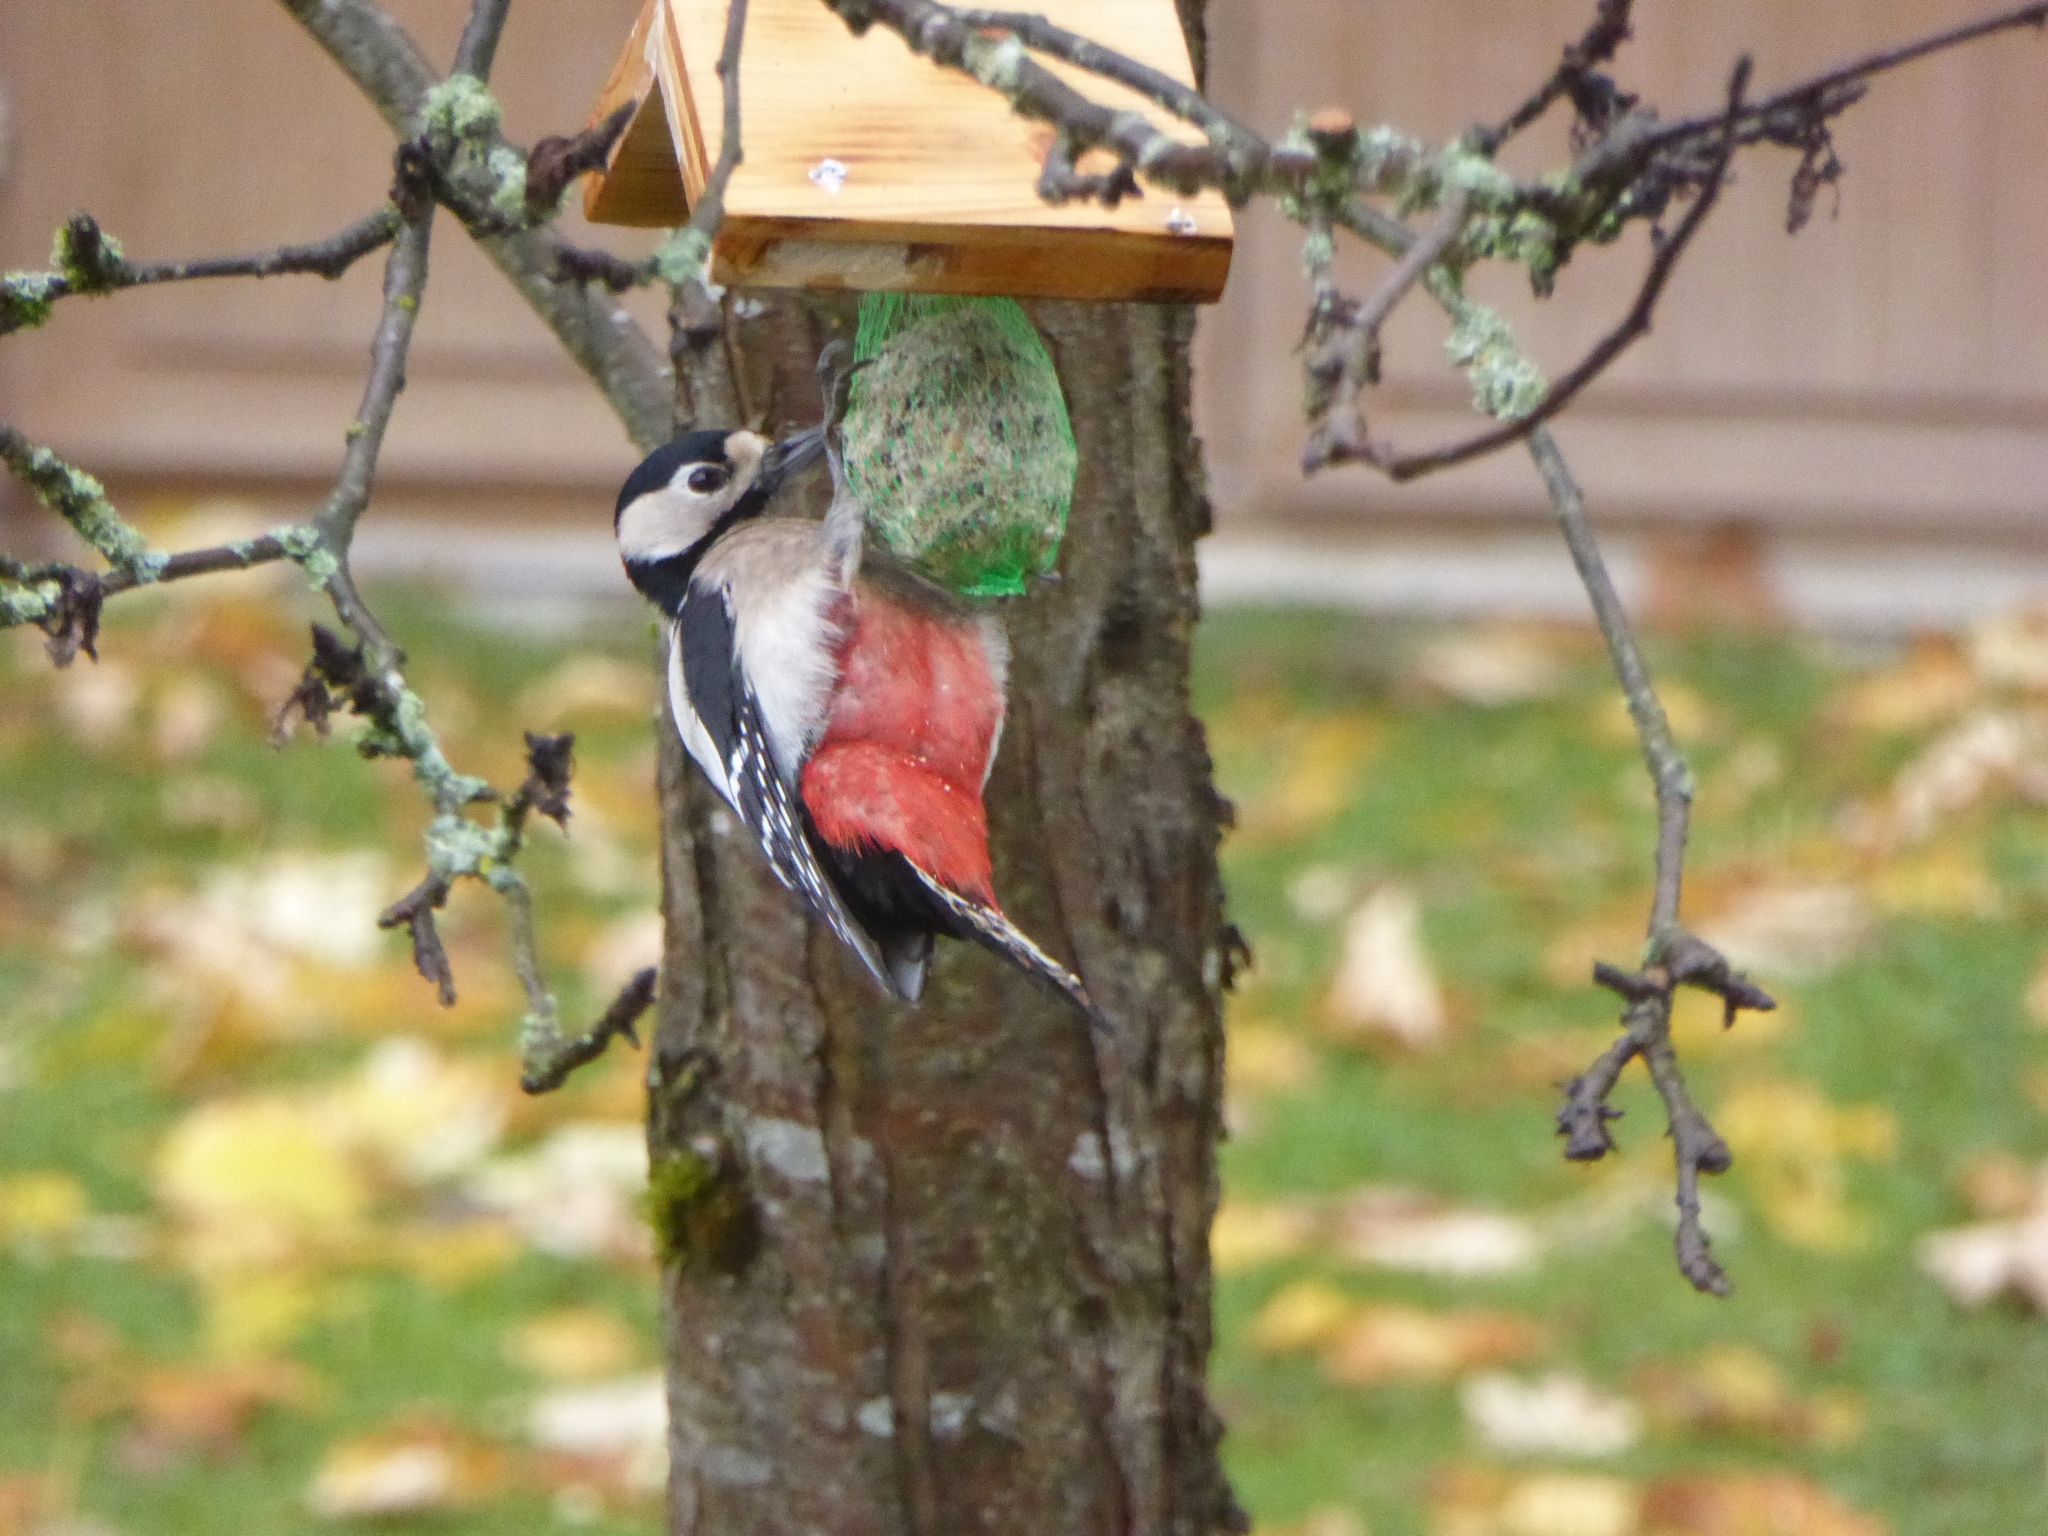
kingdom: Animalia
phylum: Chordata
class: Aves
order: Piciformes
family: Picidae
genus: Dendrocopos
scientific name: Dendrocopos major
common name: Great spotted woodpecker
